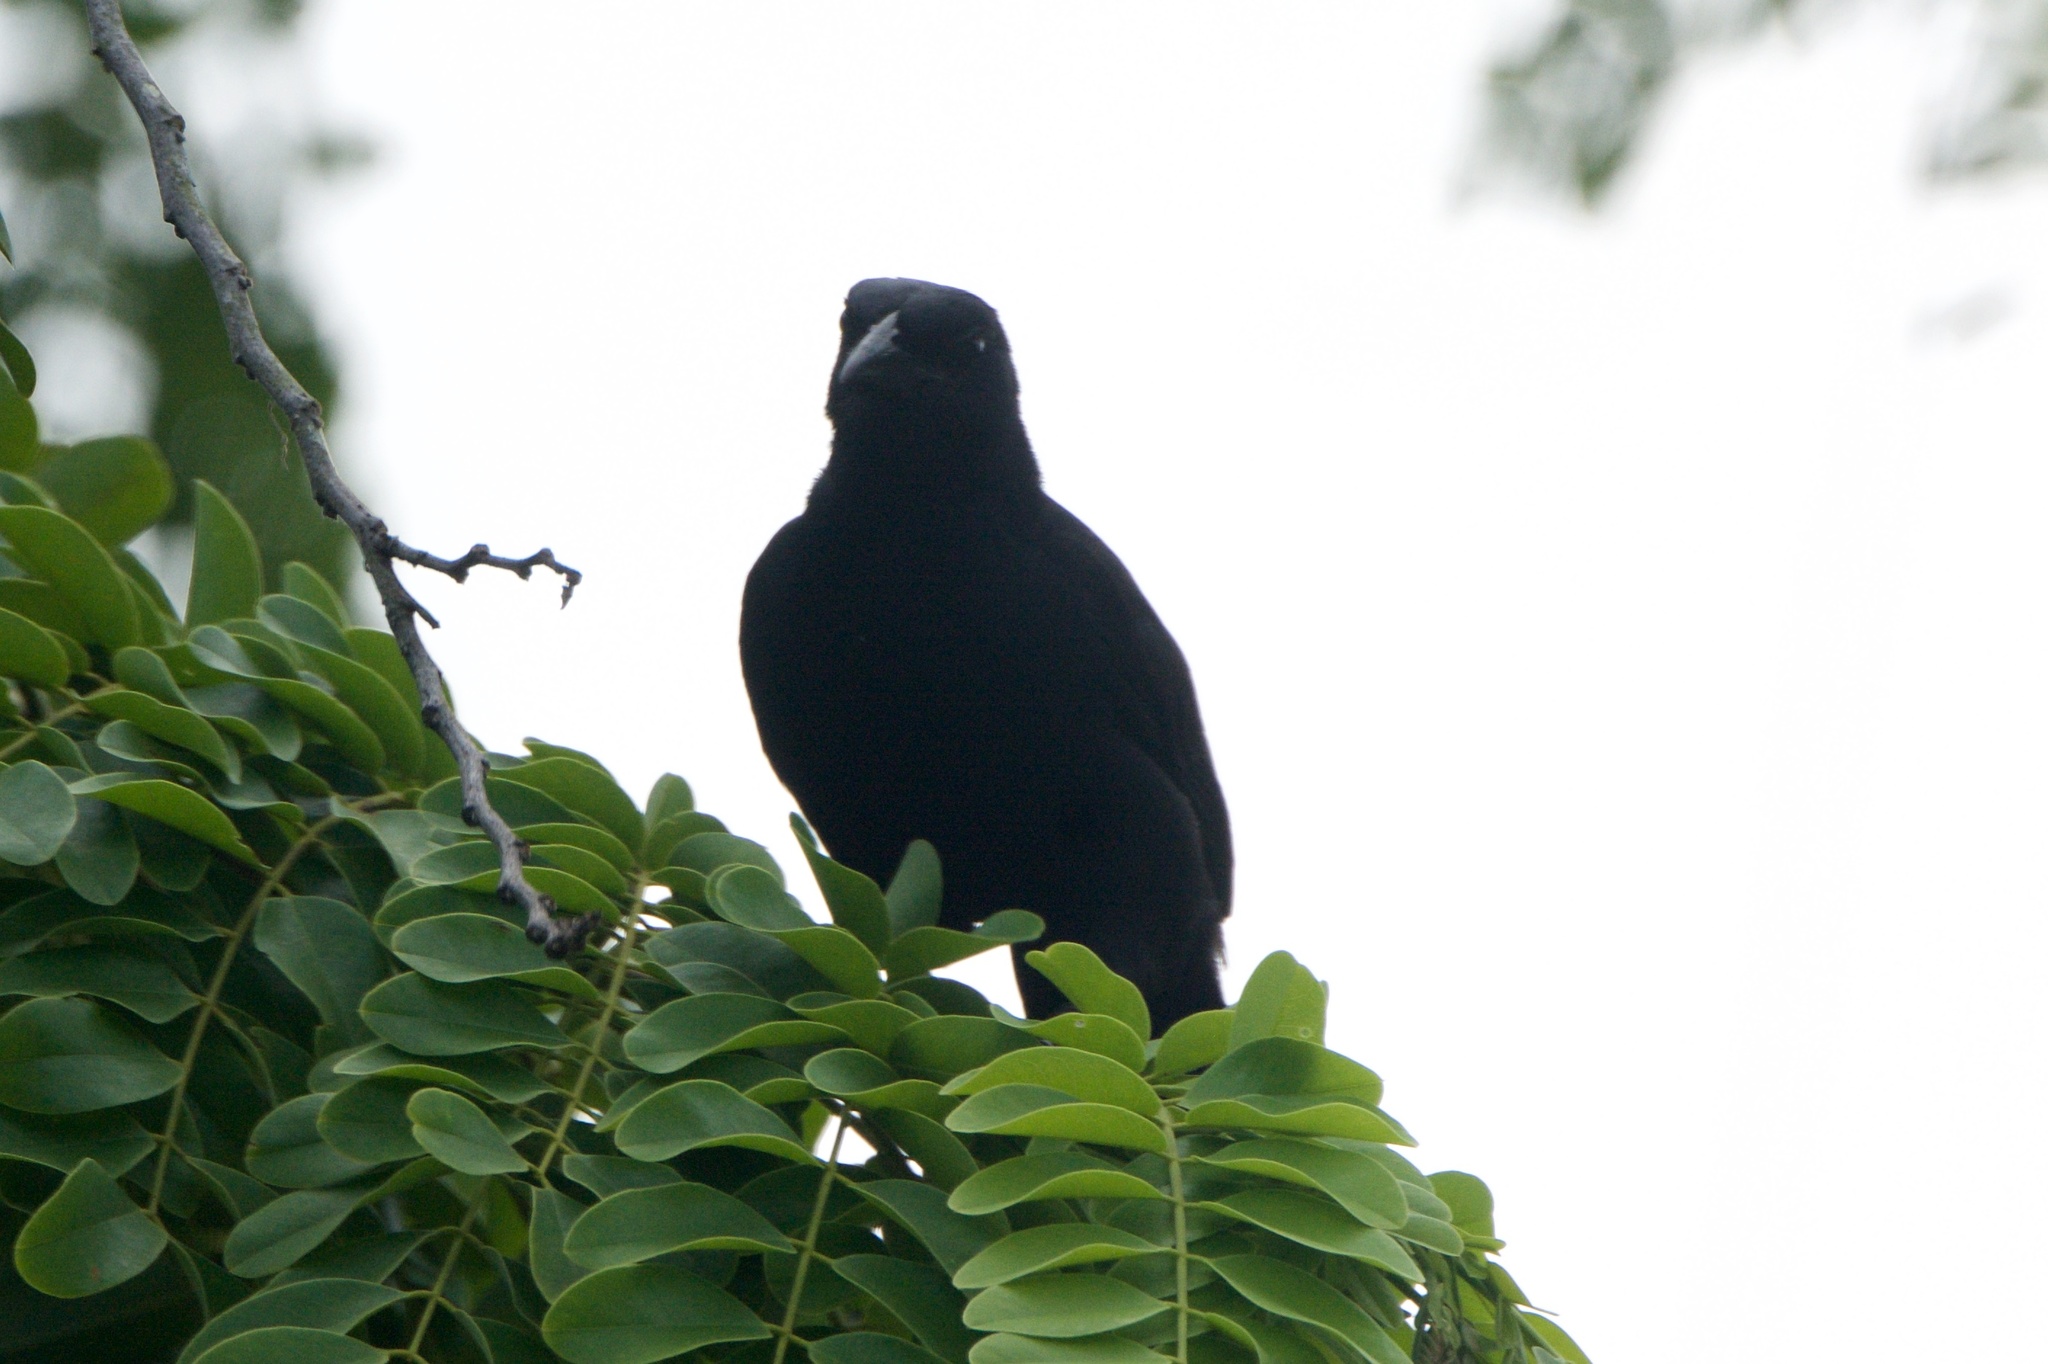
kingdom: Animalia
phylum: Chordata
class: Aves
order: Passeriformes
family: Icteridae
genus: Dives
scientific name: Dives dives
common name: Melodious blackbird
